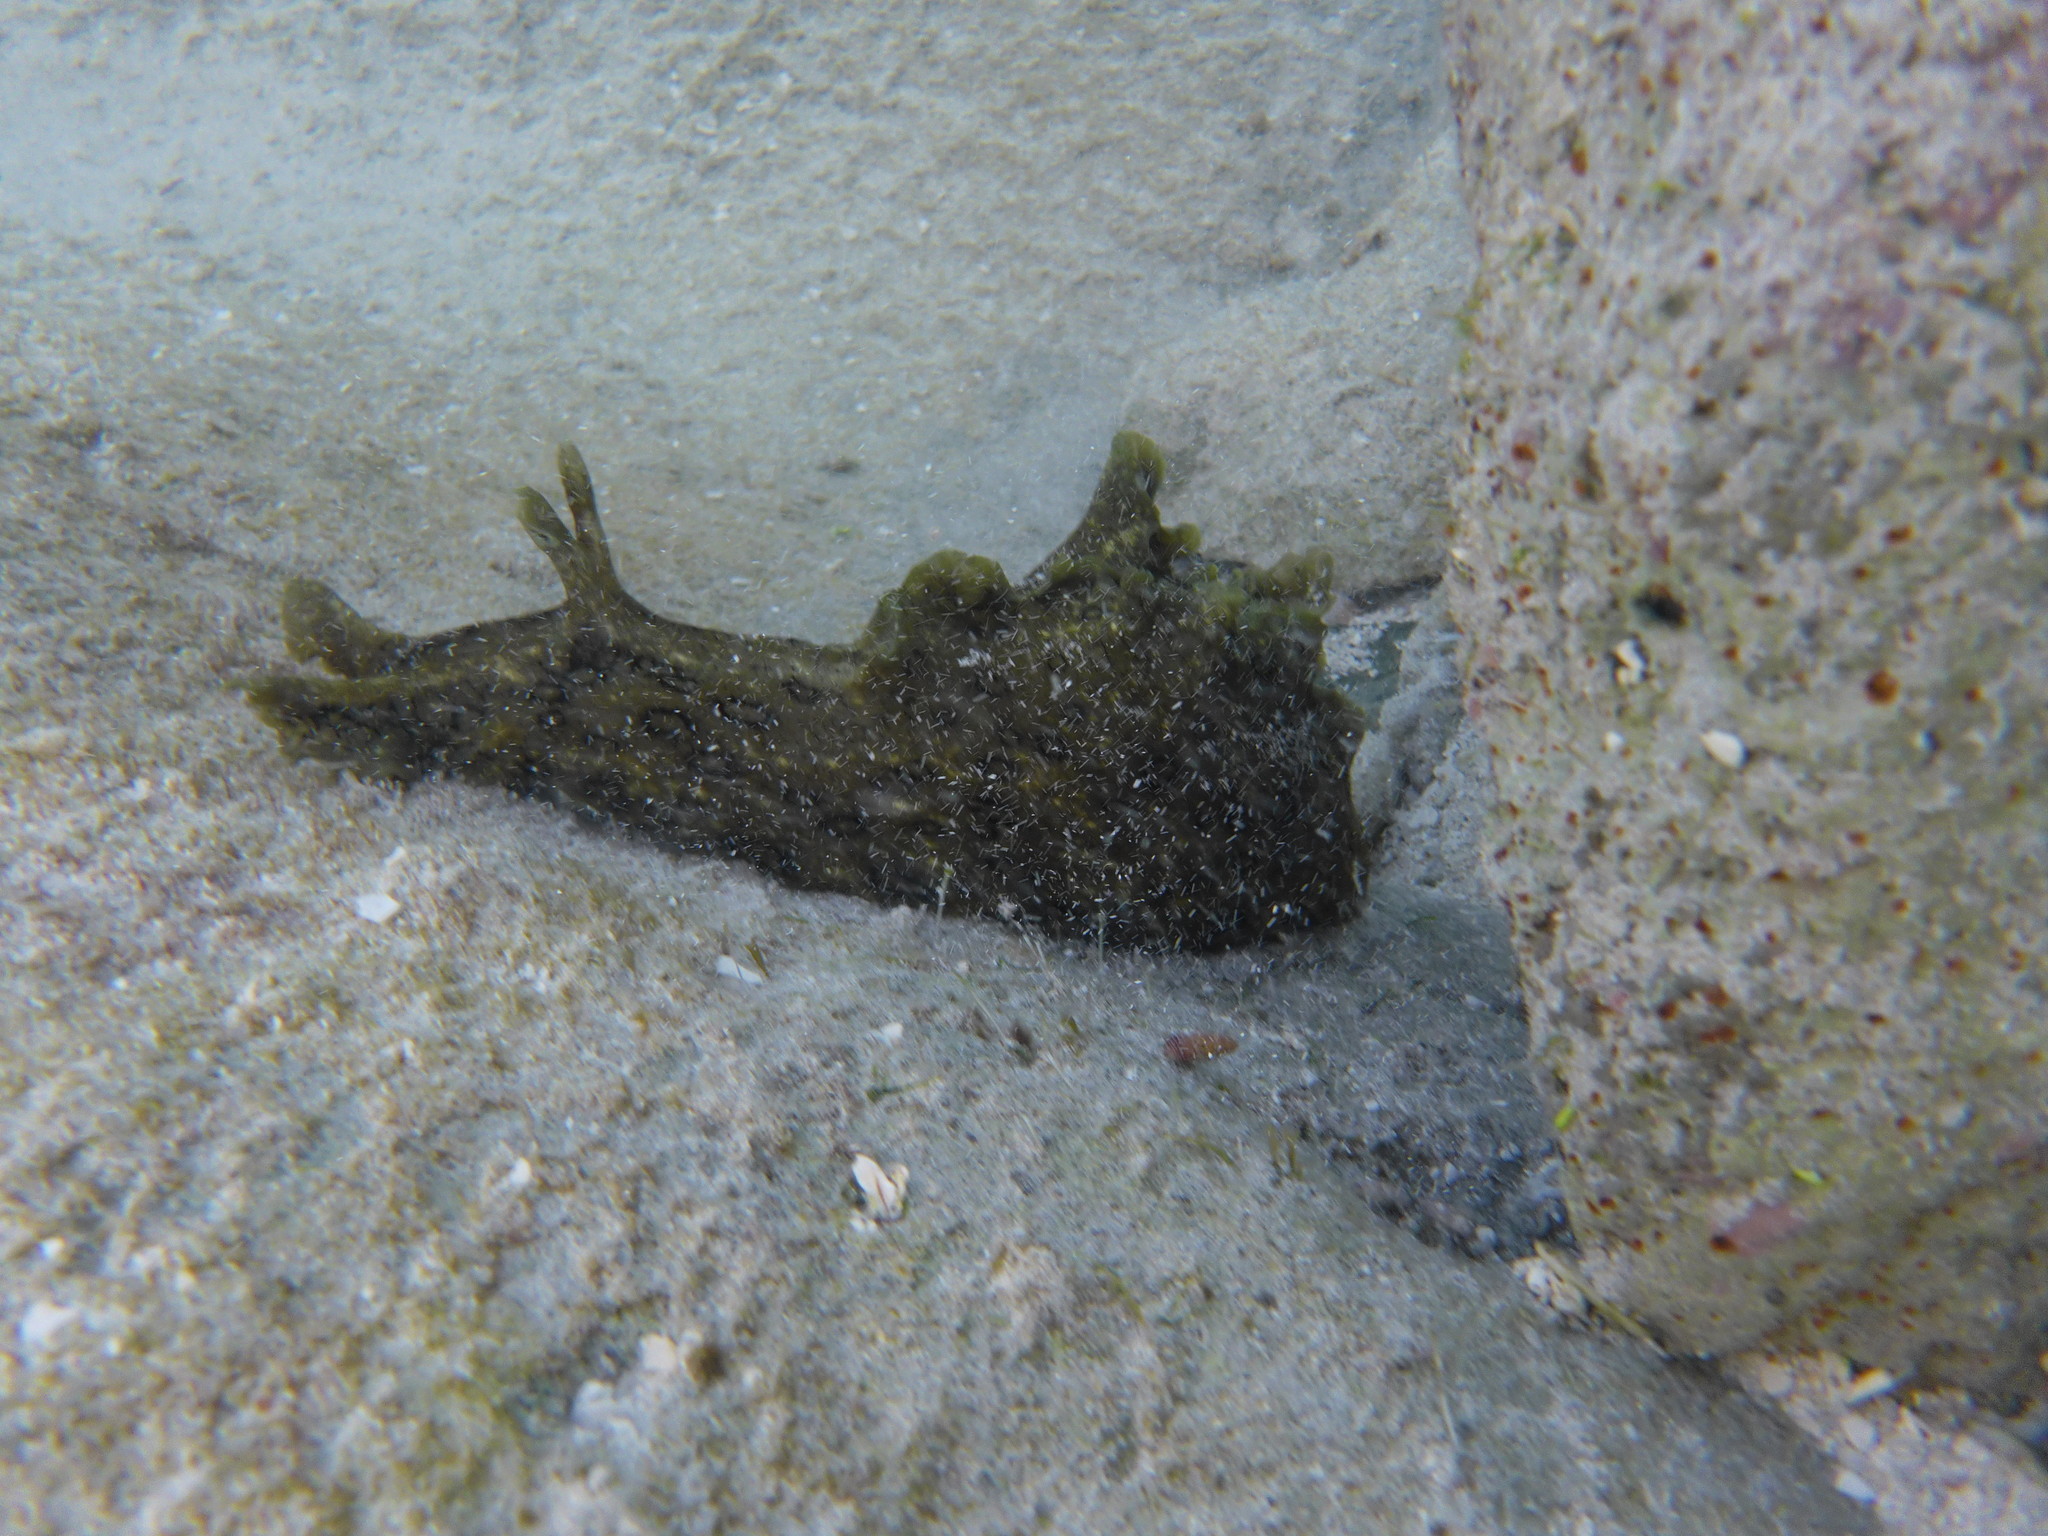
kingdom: Animalia
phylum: Mollusca
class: Gastropoda
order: Aplysiida
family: Aplysiidae
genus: Aplysia
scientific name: Aplysia dactylomela
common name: Large-spotted sea hare
